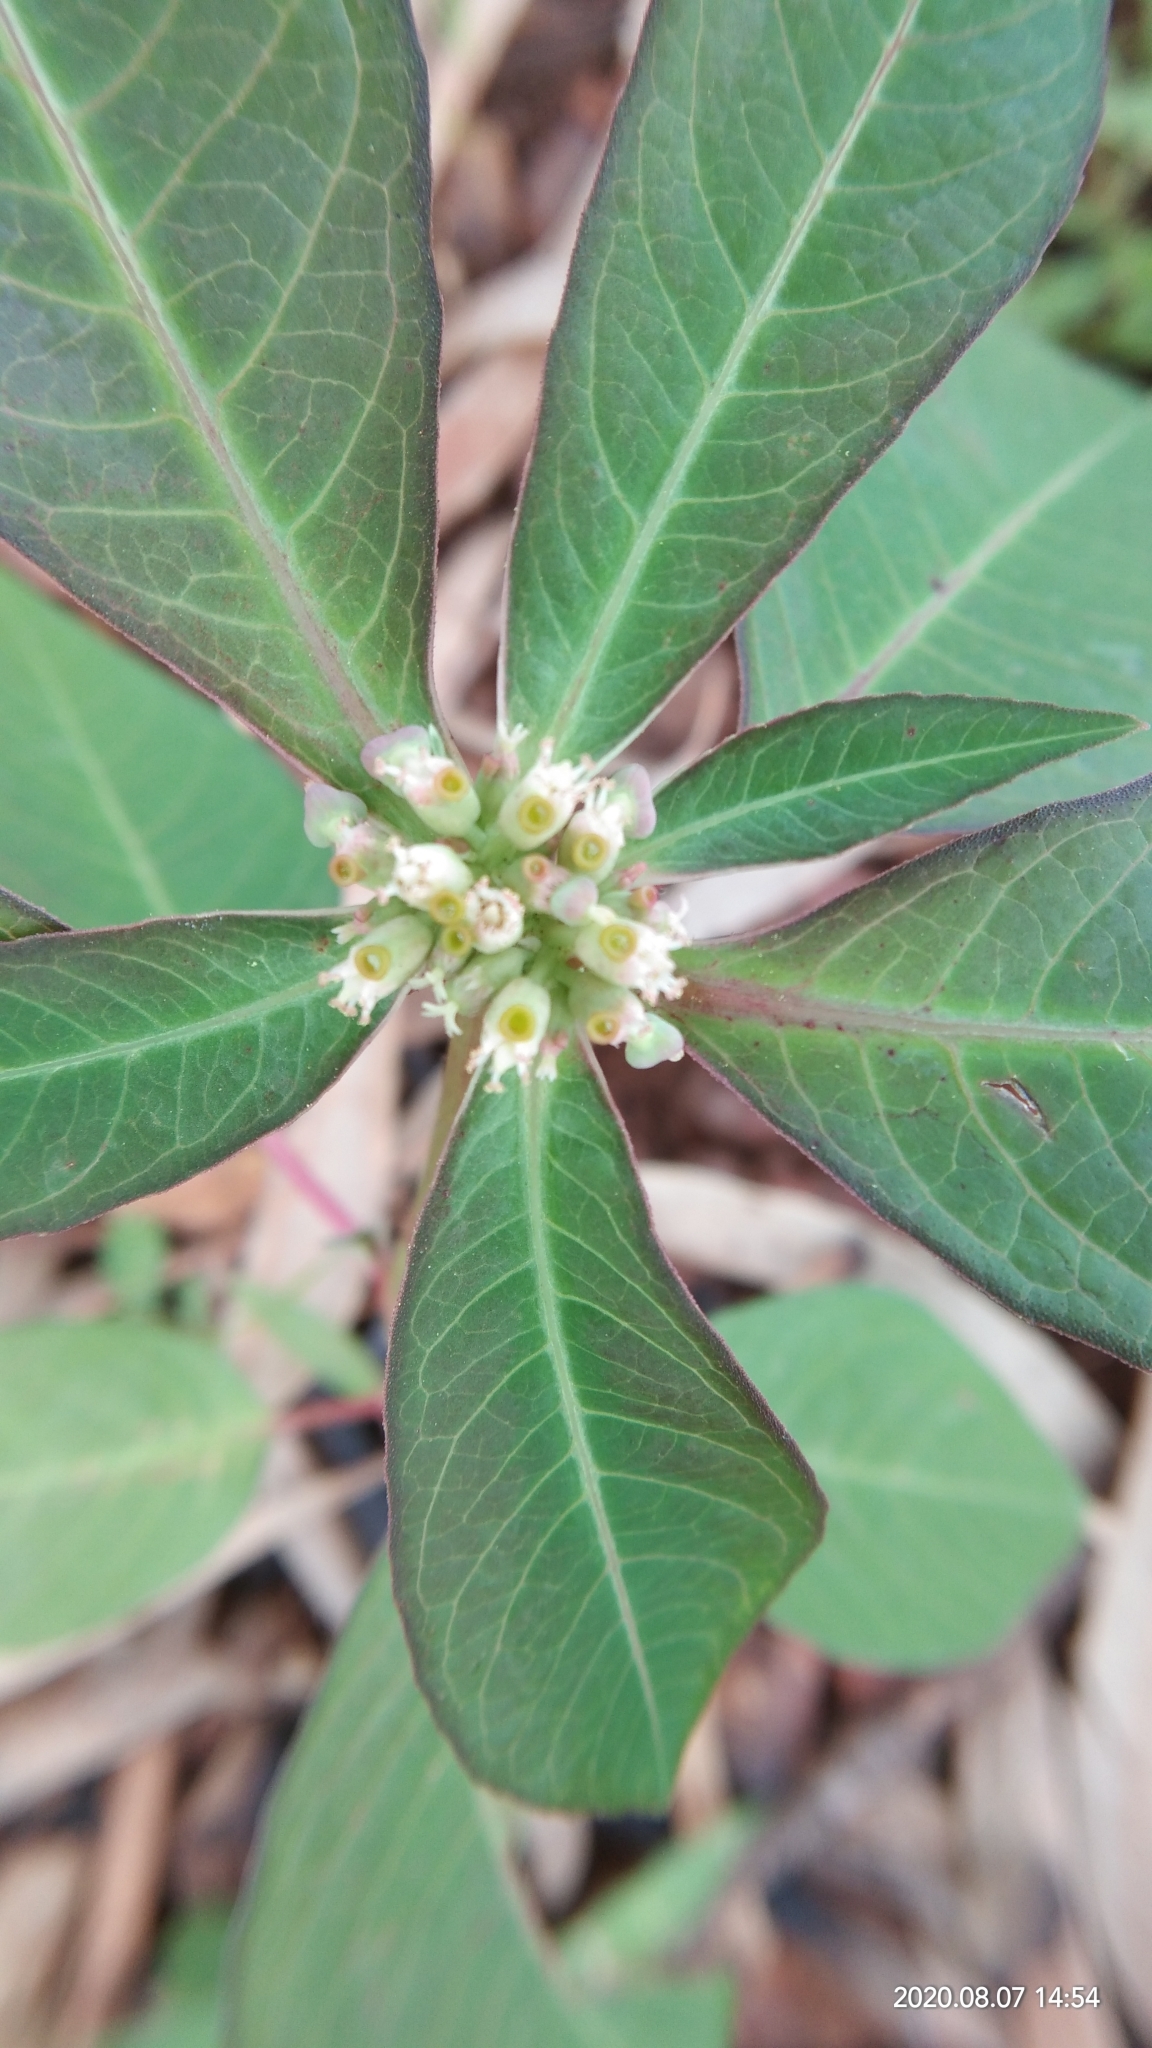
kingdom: Plantae
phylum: Tracheophyta
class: Magnoliopsida
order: Malpighiales
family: Euphorbiaceae
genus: Euphorbia
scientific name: Euphorbia heterophylla
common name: Mexican fireplant
